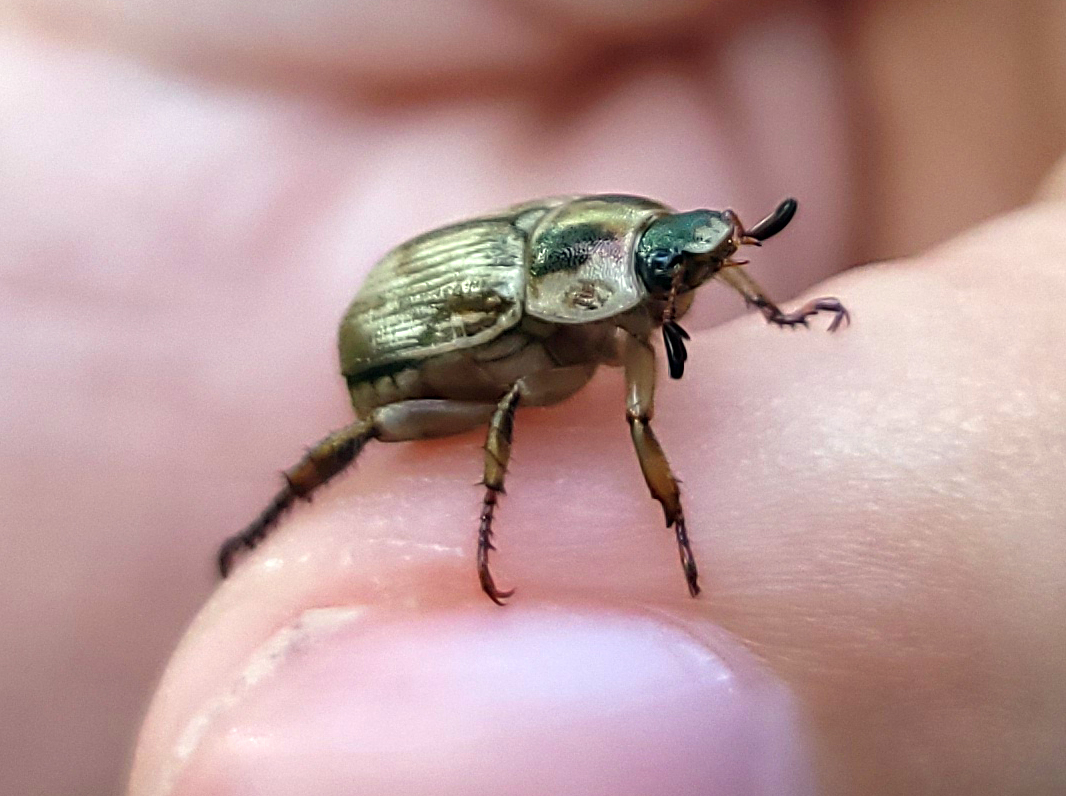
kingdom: Animalia
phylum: Arthropoda
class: Insecta
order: Coleoptera
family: Scarabaeidae
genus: Exomala
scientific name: Exomala orientalis
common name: Oriental beetle
